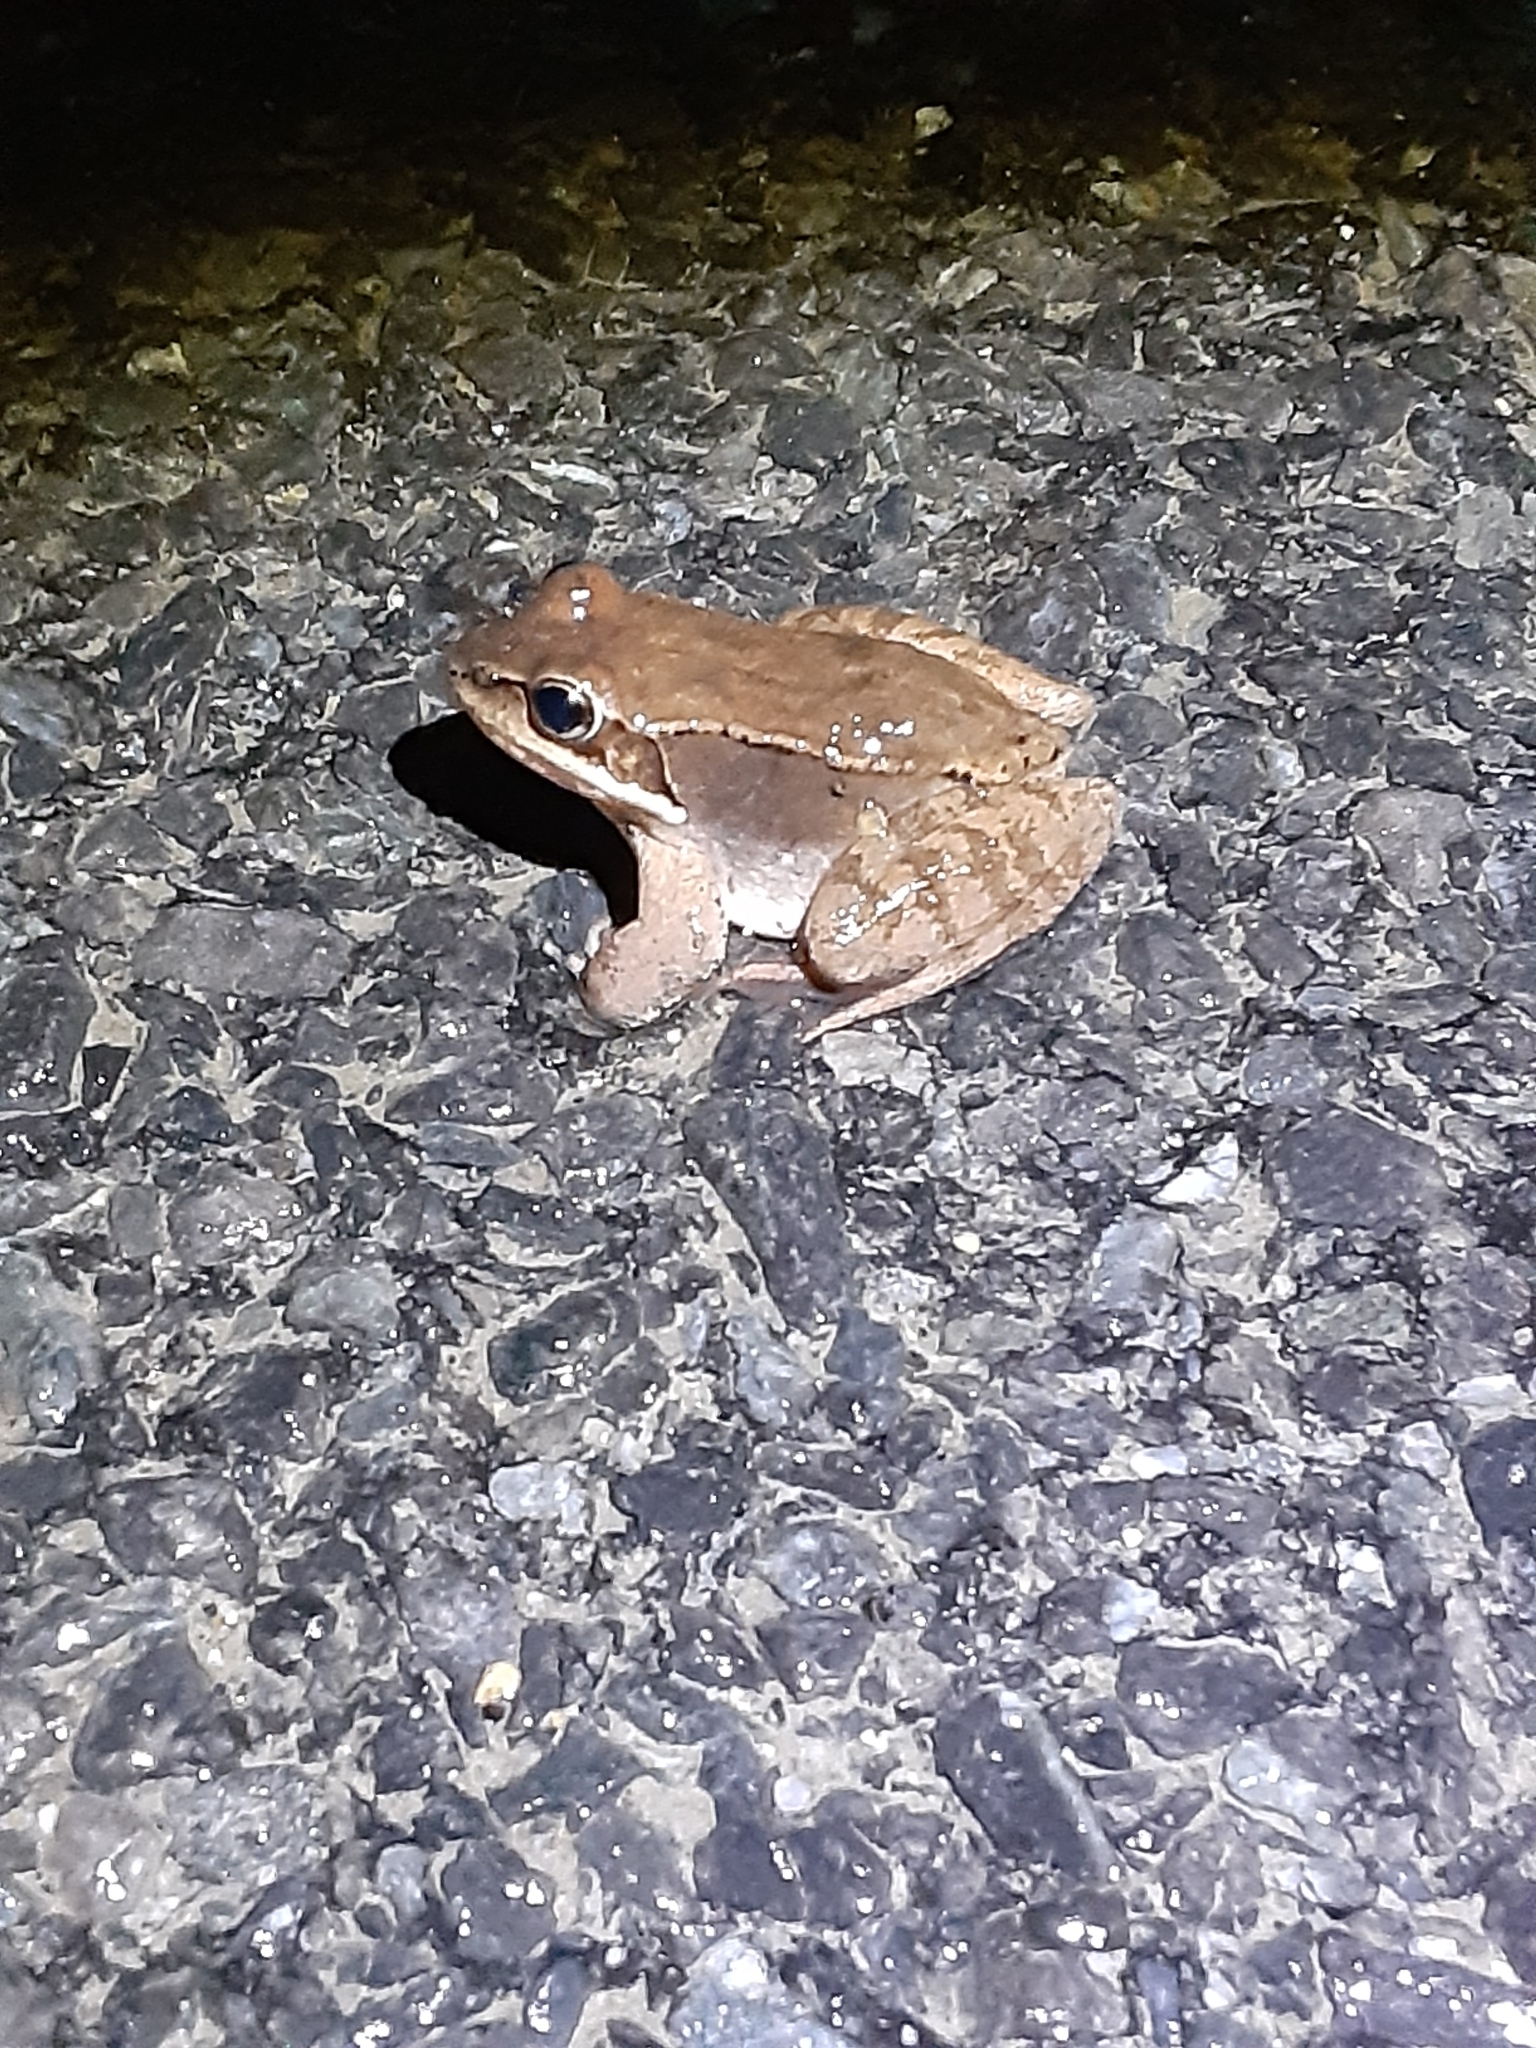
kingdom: Animalia
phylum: Chordata
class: Amphibia
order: Anura
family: Ranidae
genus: Lithobates
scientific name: Lithobates sylvaticus
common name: Wood frog
